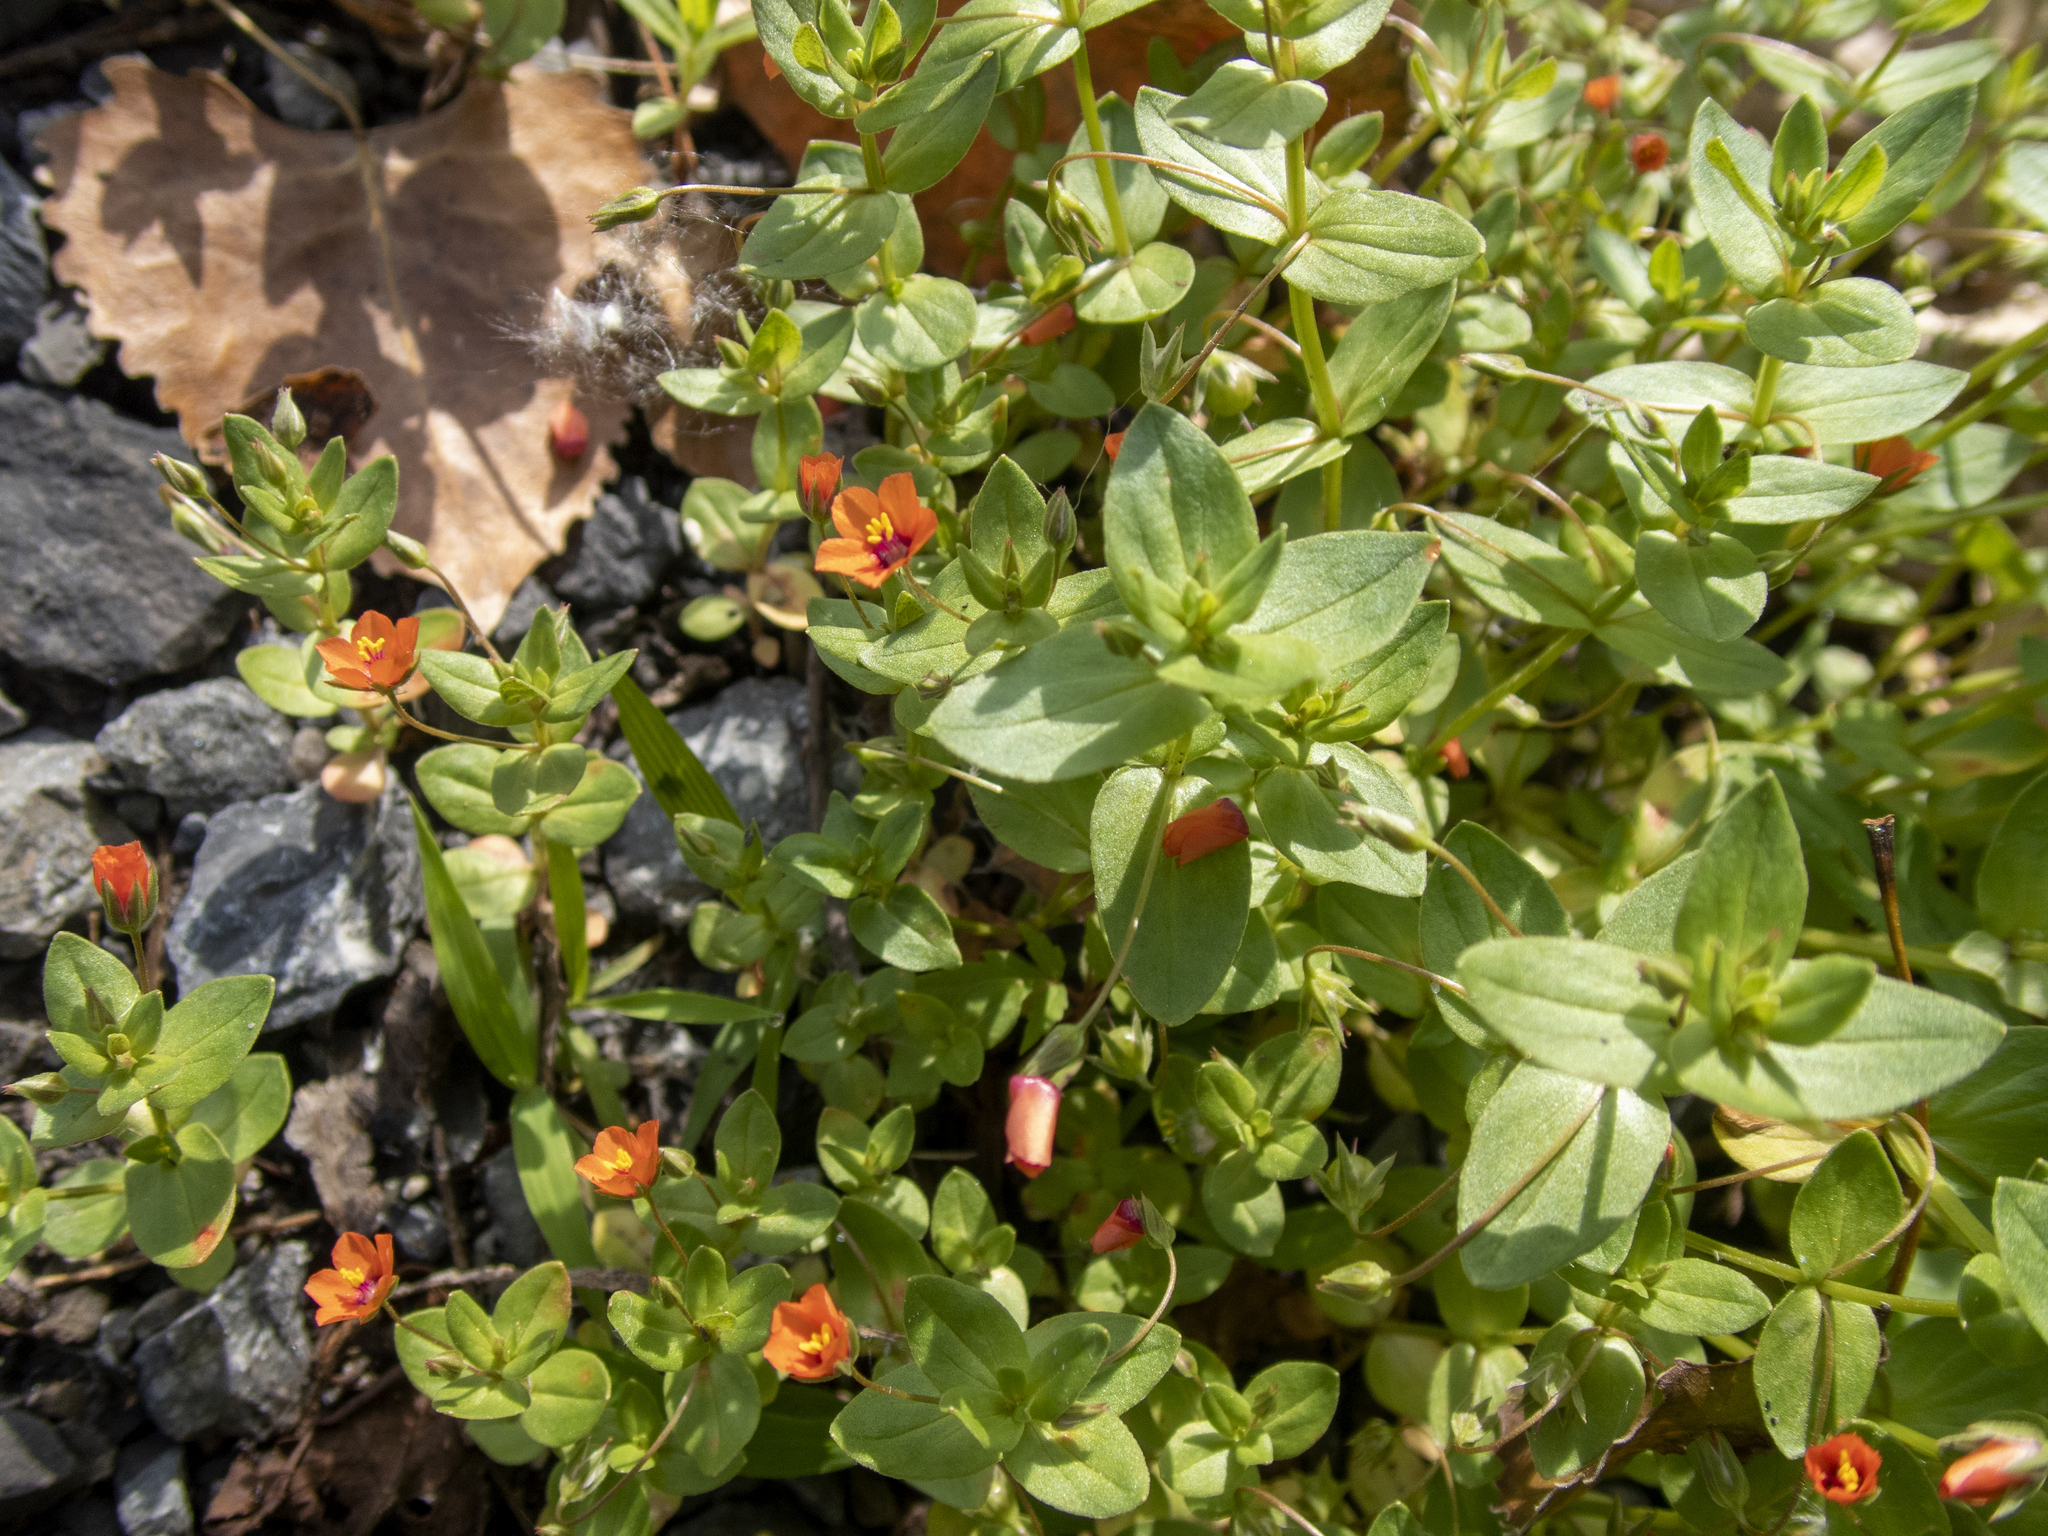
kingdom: Plantae
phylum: Tracheophyta
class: Magnoliopsida
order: Ericales
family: Primulaceae
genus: Lysimachia
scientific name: Lysimachia arvensis
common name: Scarlet pimpernel
